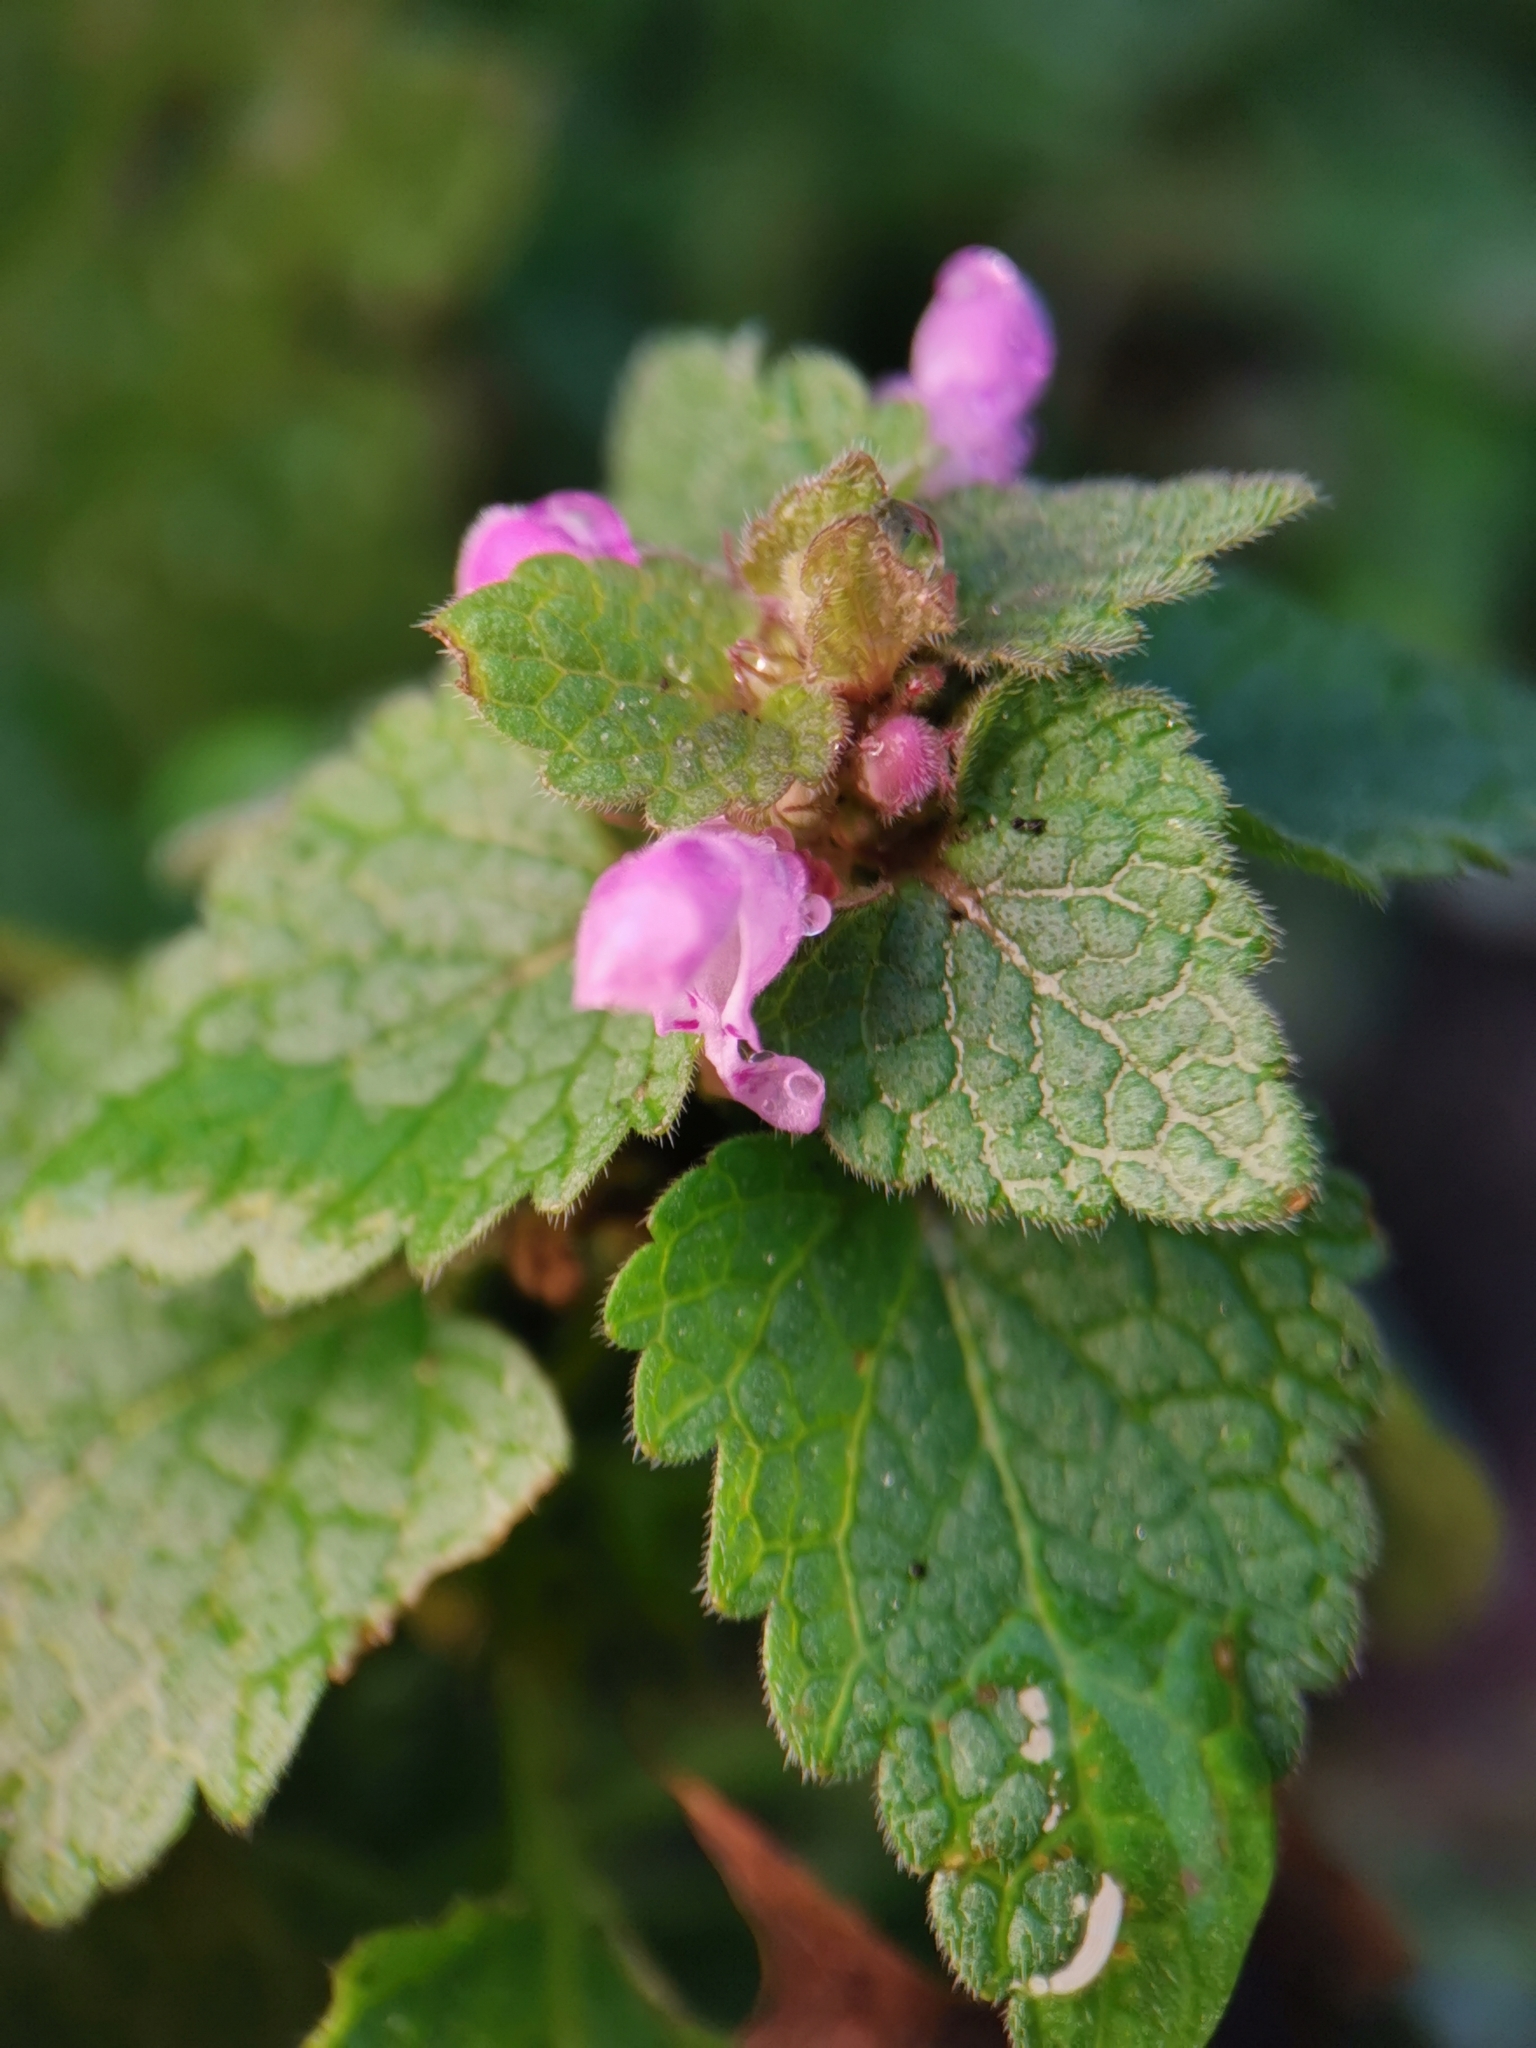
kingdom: Plantae
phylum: Tracheophyta
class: Magnoliopsida
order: Lamiales
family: Lamiaceae
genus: Lamium
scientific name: Lamium purpureum
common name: Red dead-nettle
